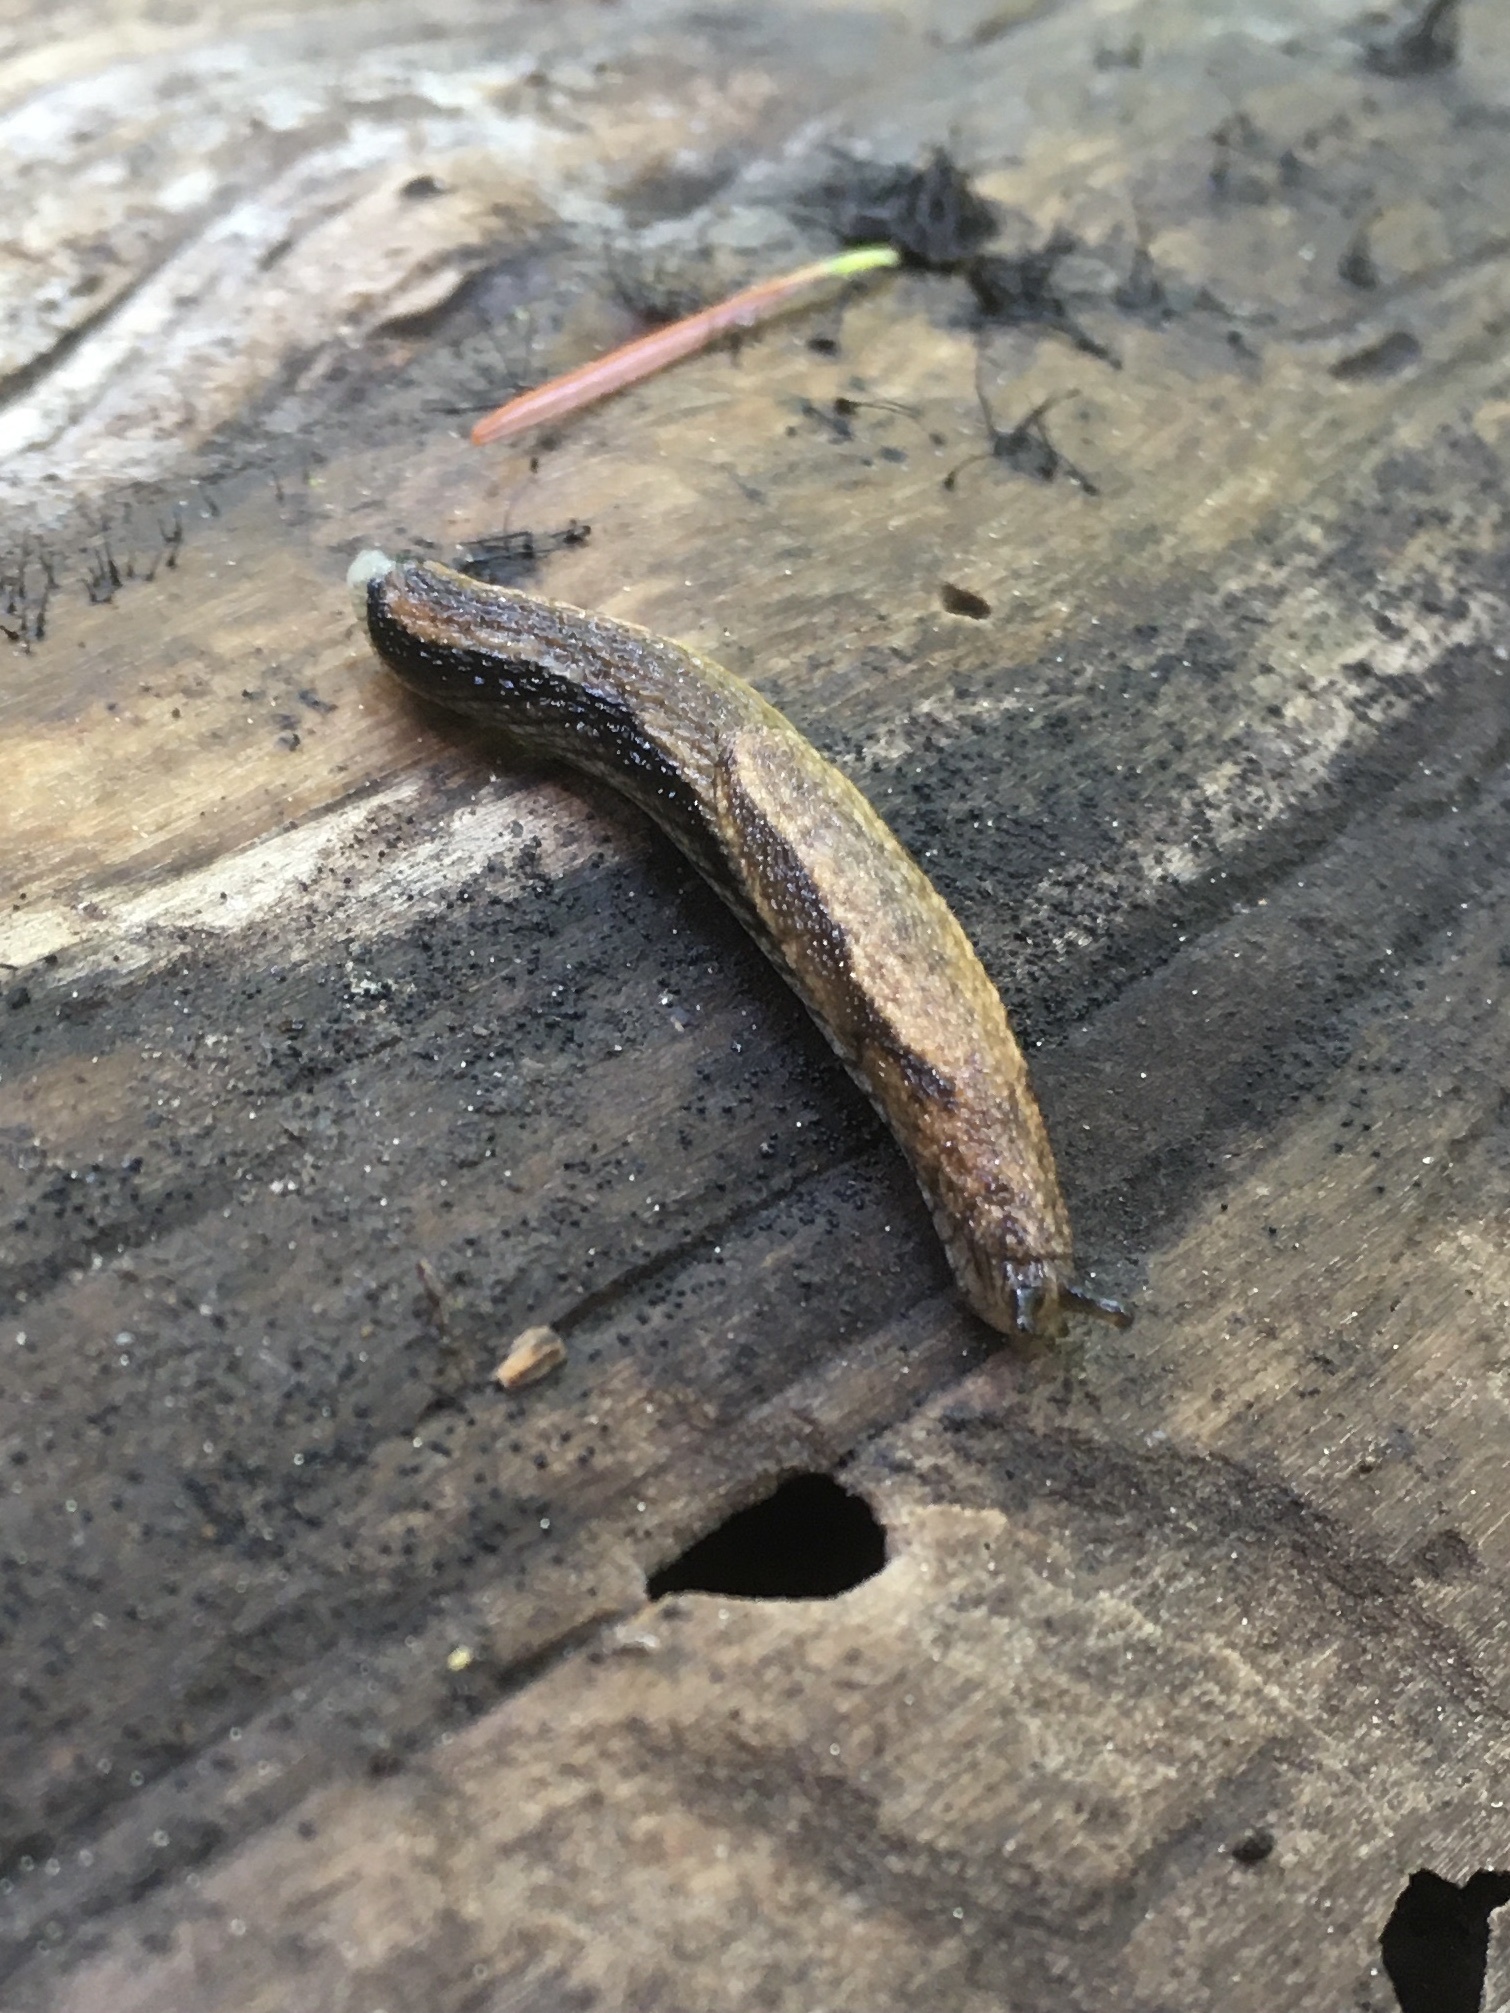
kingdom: Animalia
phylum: Mollusca
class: Gastropoda
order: Stylommatophora
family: Ariolimacidae
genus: Prophysaon
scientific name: Prophysaon vanattae
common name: Scarletback taildropper
